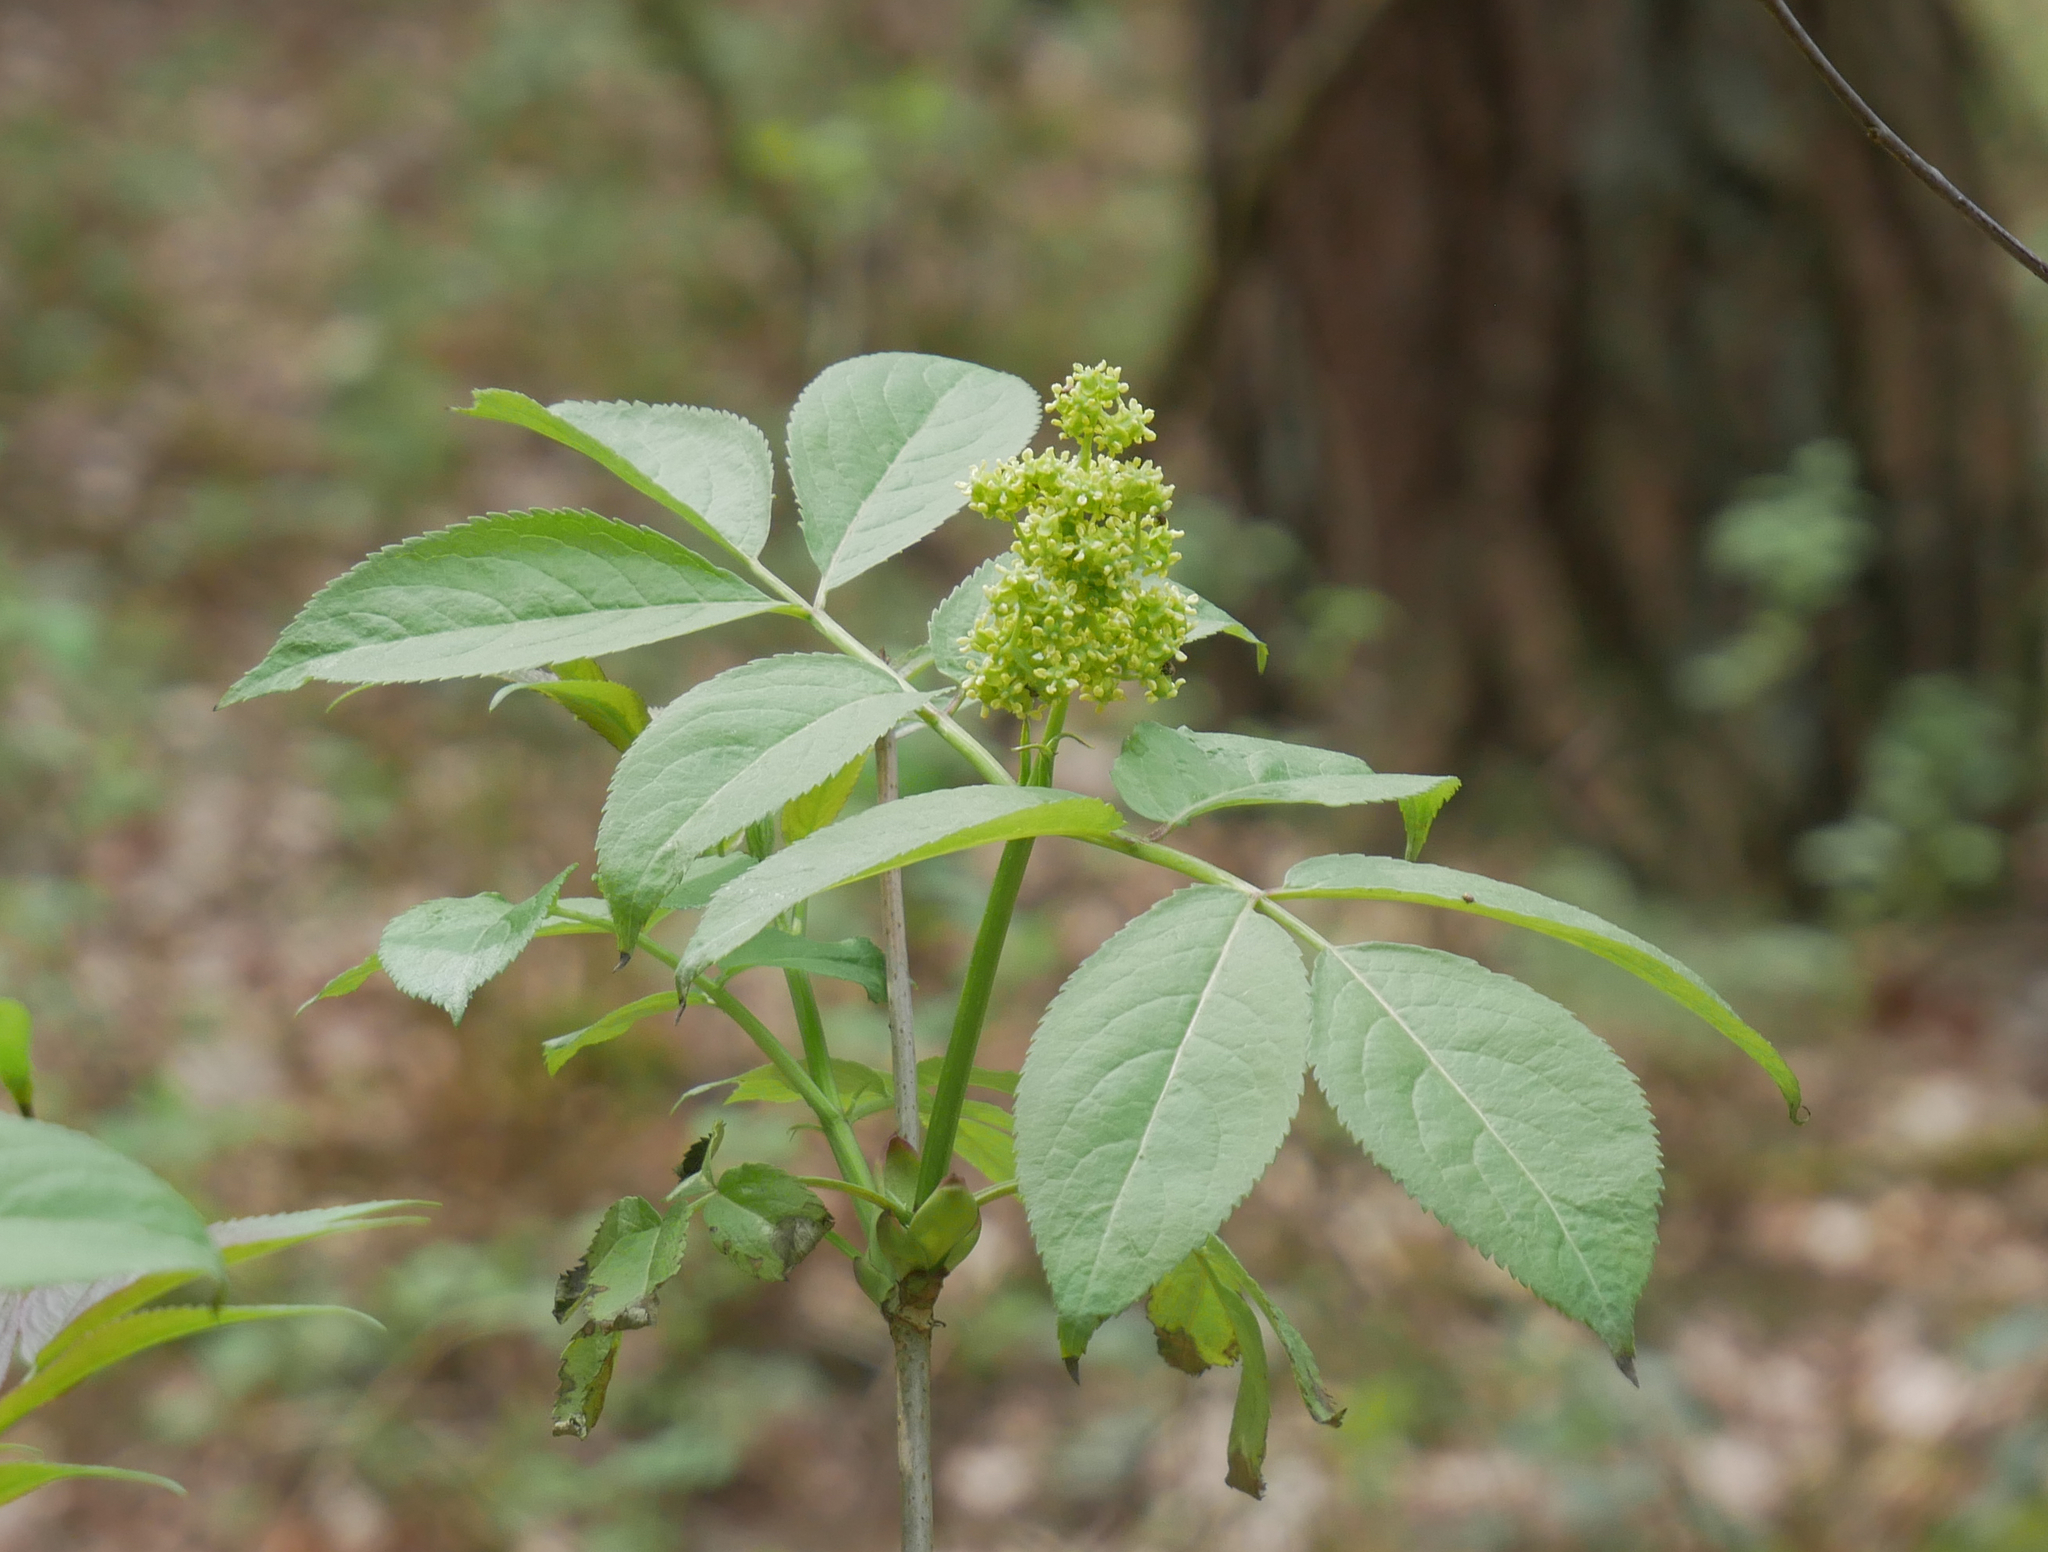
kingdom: Plantae
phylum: Tracheophyta
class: Magnoliopsida
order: Dipsacales
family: Viburnaceae
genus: Sambucus
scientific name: Sambucus racemosa
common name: Red-berried elder
